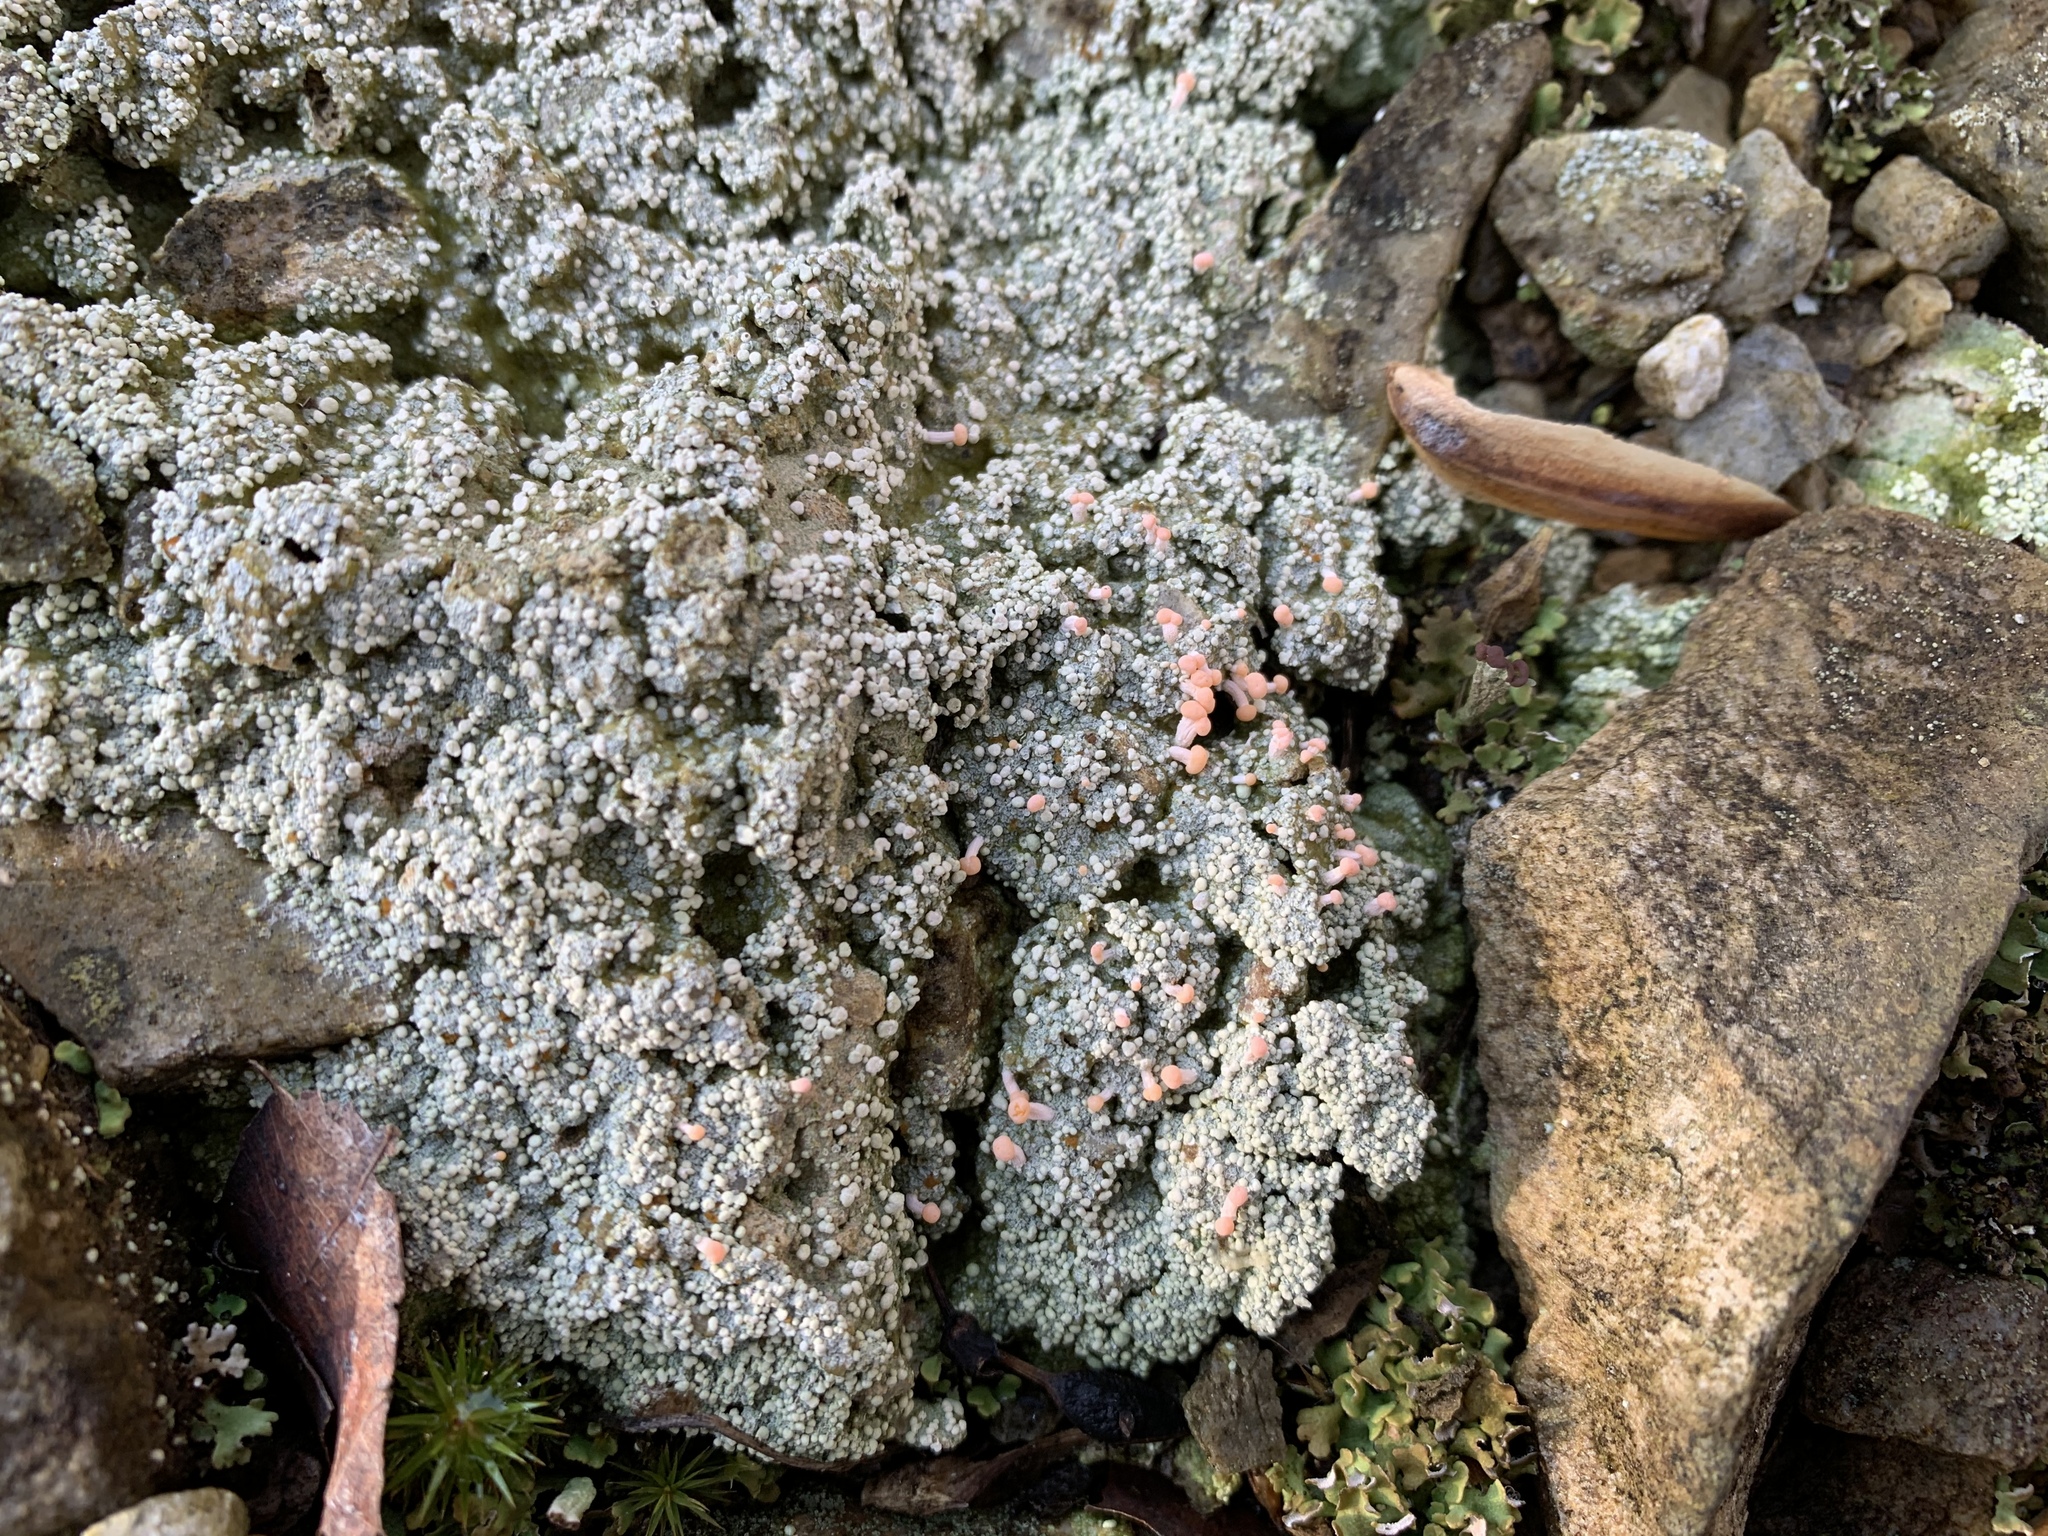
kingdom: Fungi
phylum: Ascomycota
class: Lecanoromycetes
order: Pertusariales
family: Icmadophilaceae
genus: Dibaeis
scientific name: Dibaeis baeomyces
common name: Pink earth lichen
